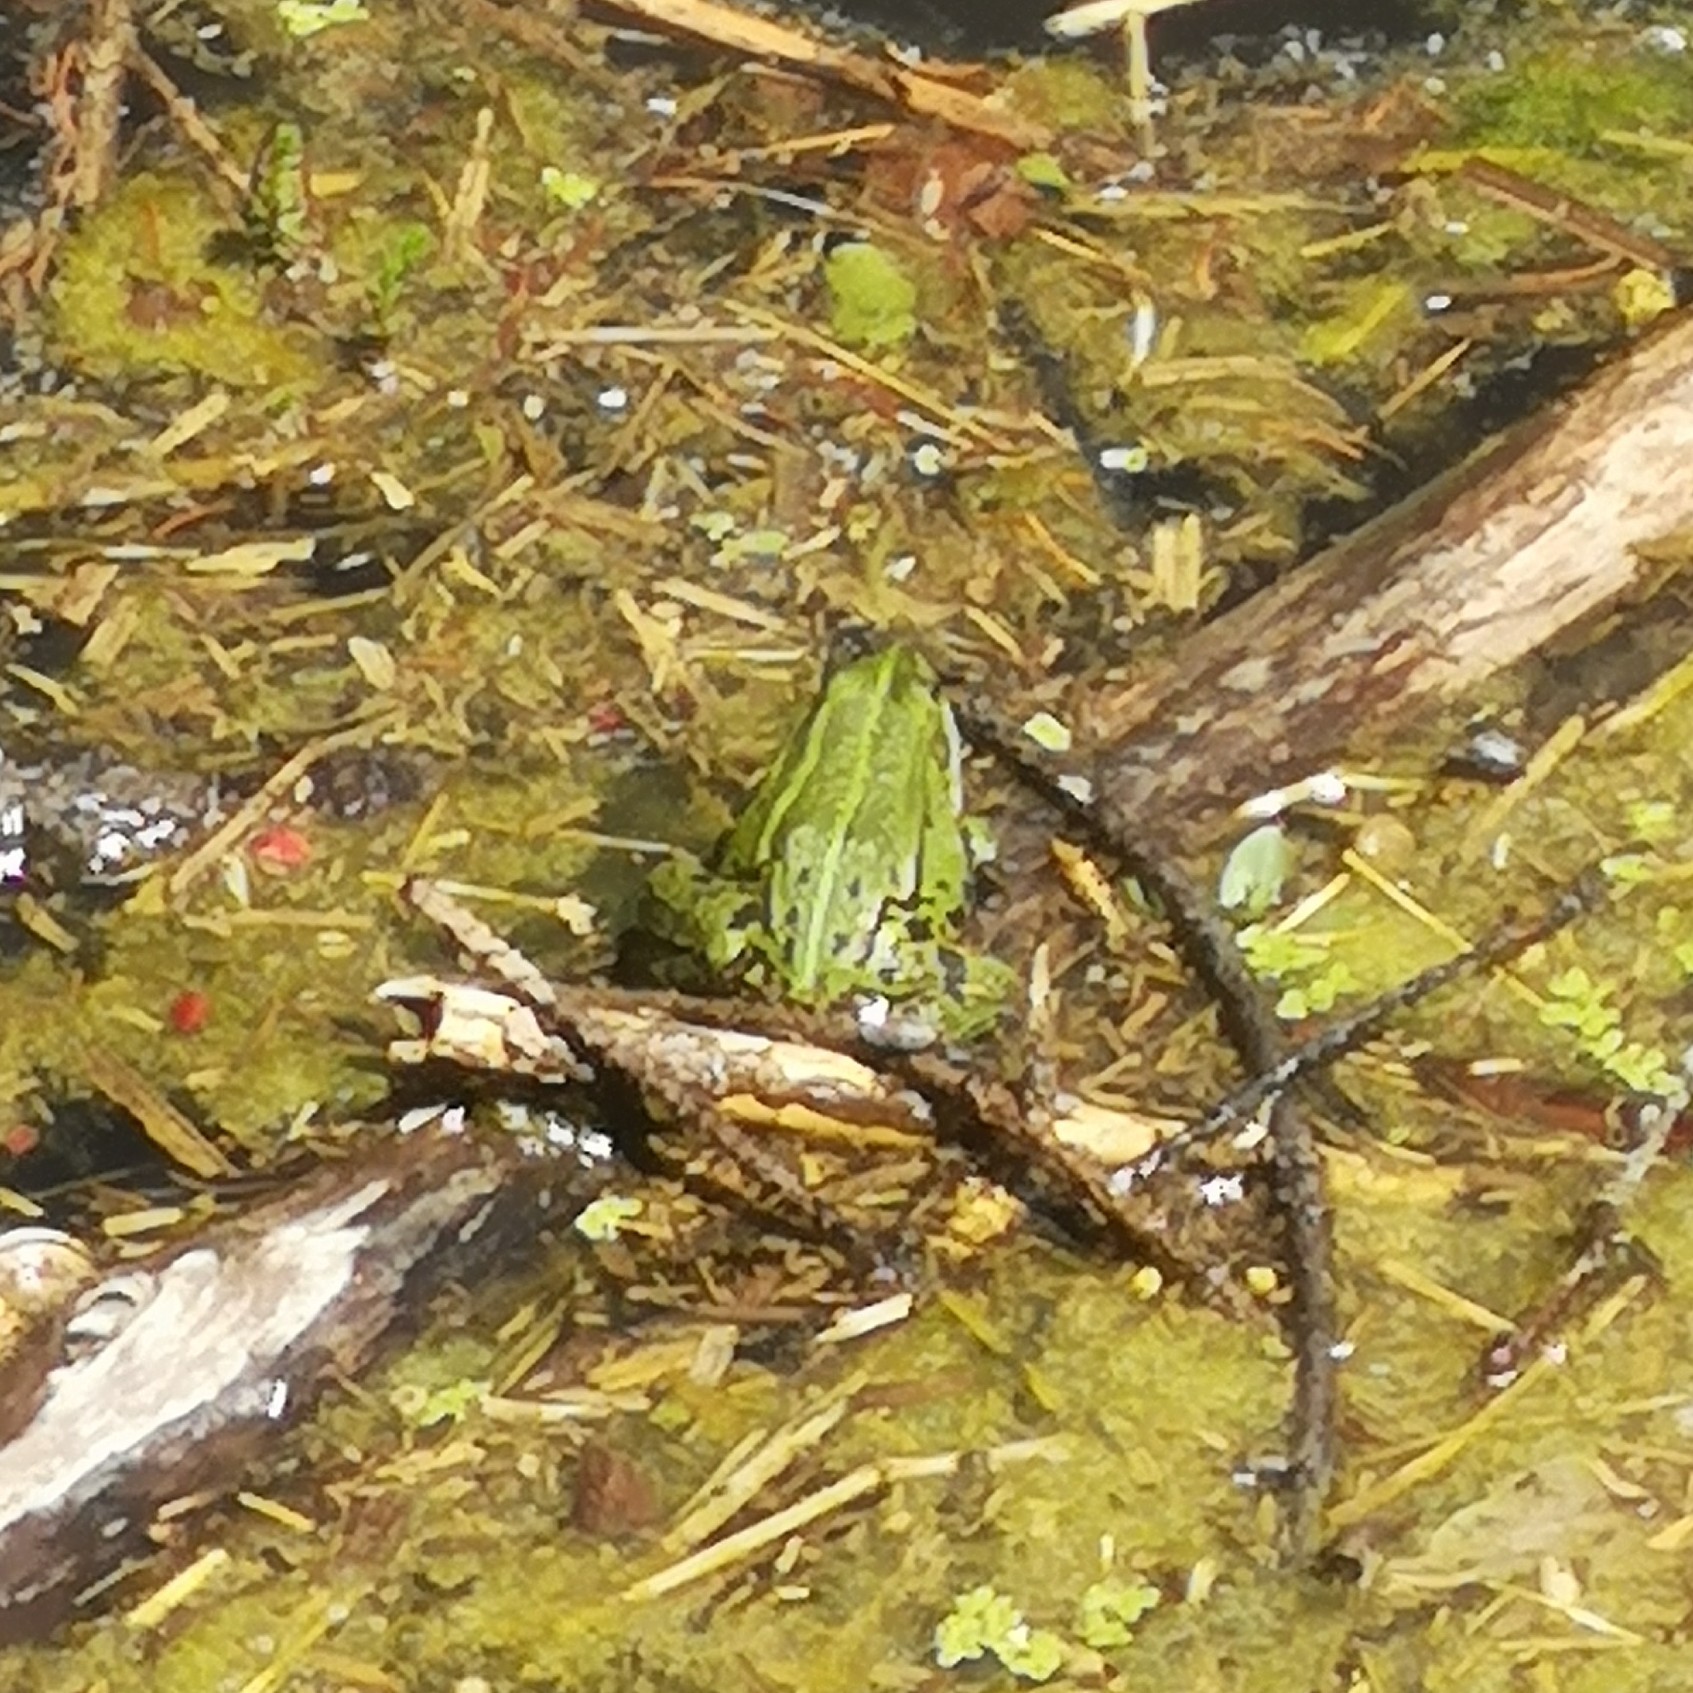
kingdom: Animalia
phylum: Chordata
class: Amphibia
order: Anura
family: Ranidae
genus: Pelophylax
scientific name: Pelophylax
